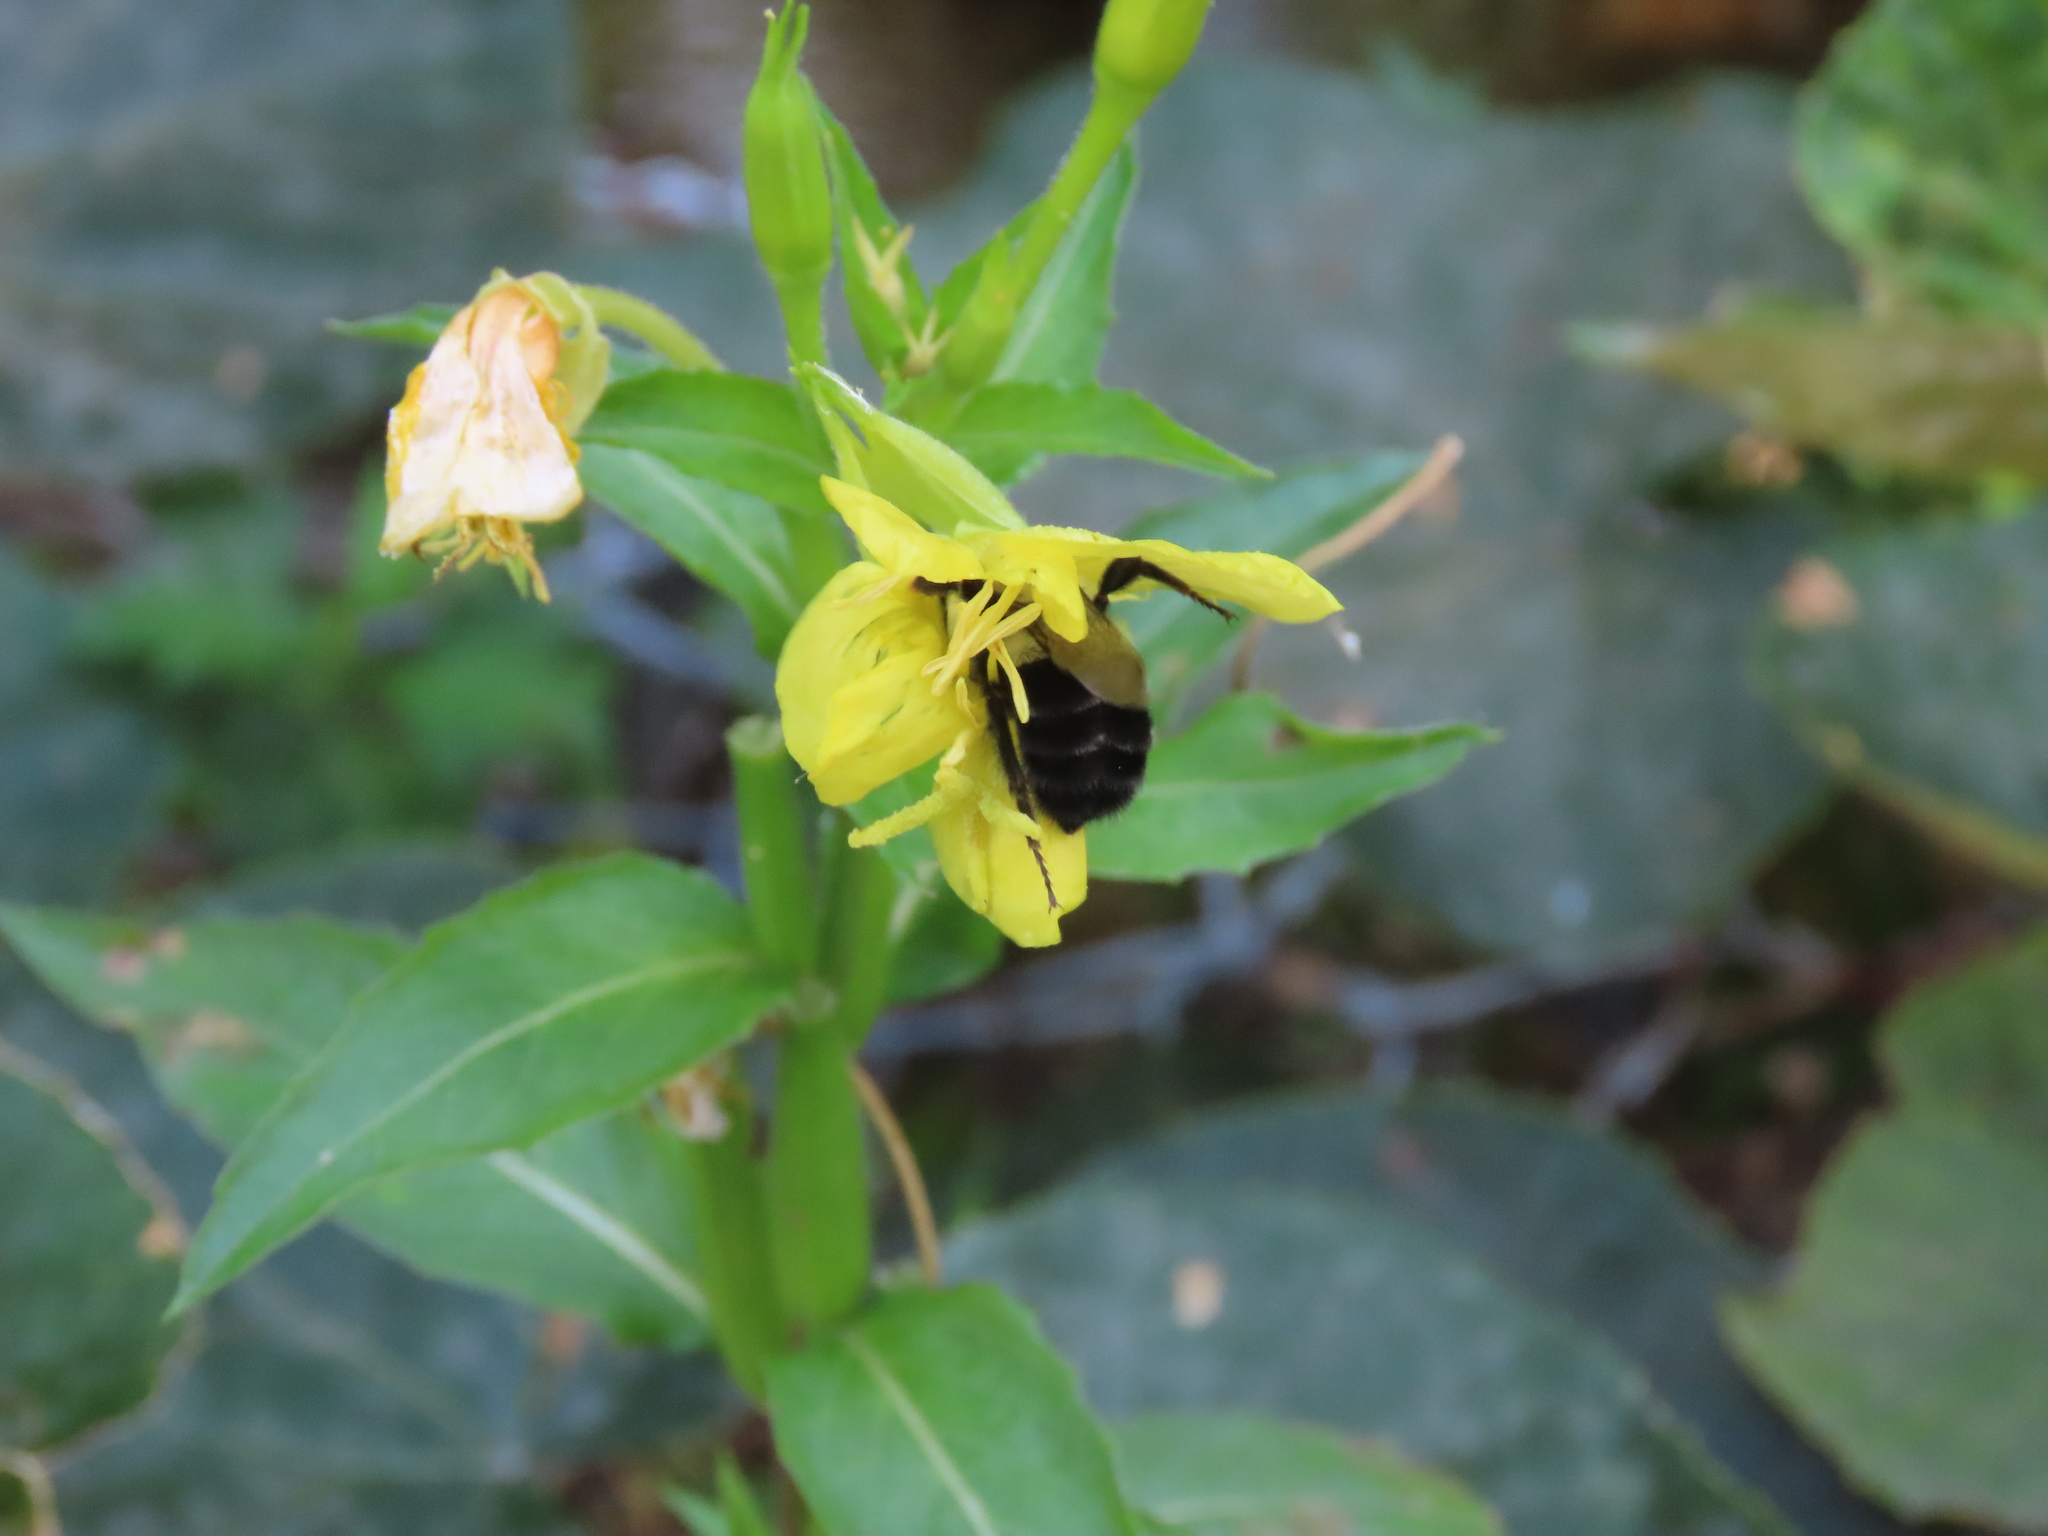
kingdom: Animalia
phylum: Arthropoda
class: Insecta
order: Hymenoptera
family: Apidae
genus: Bombus
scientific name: Bombus impatiens
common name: Common eastern bumble bee
